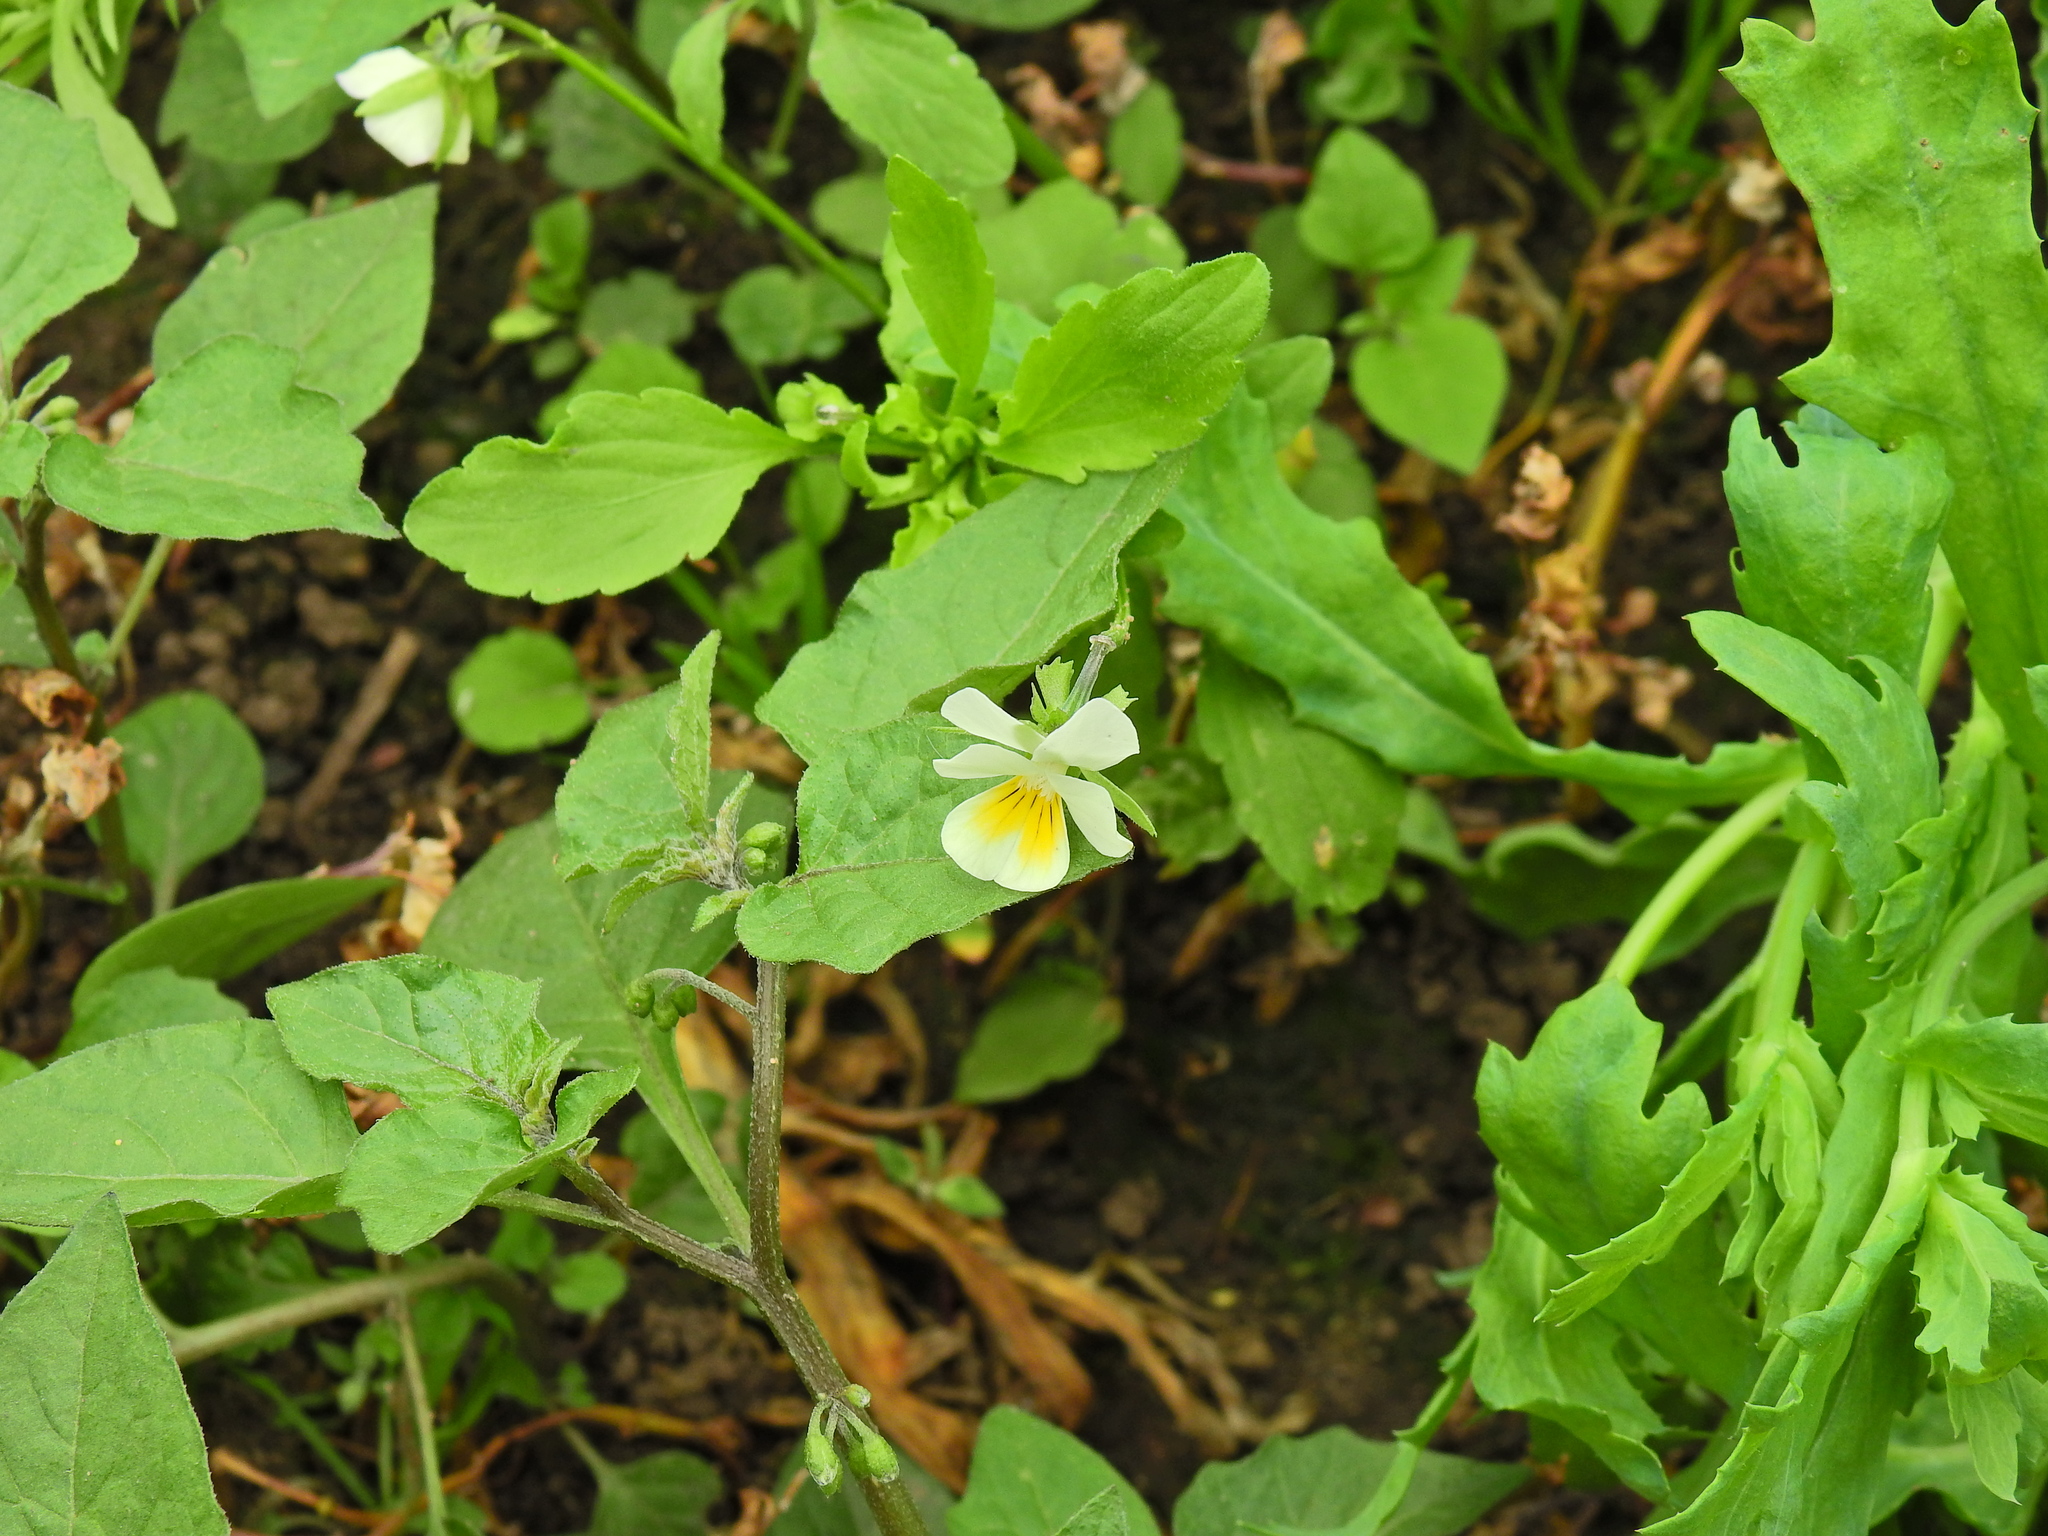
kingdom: Plantae
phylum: Tracheophyta
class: Magnoliopsida
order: Malpighiales
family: Violaceae
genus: Viola
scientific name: Viola arvensis
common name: Field pansy
